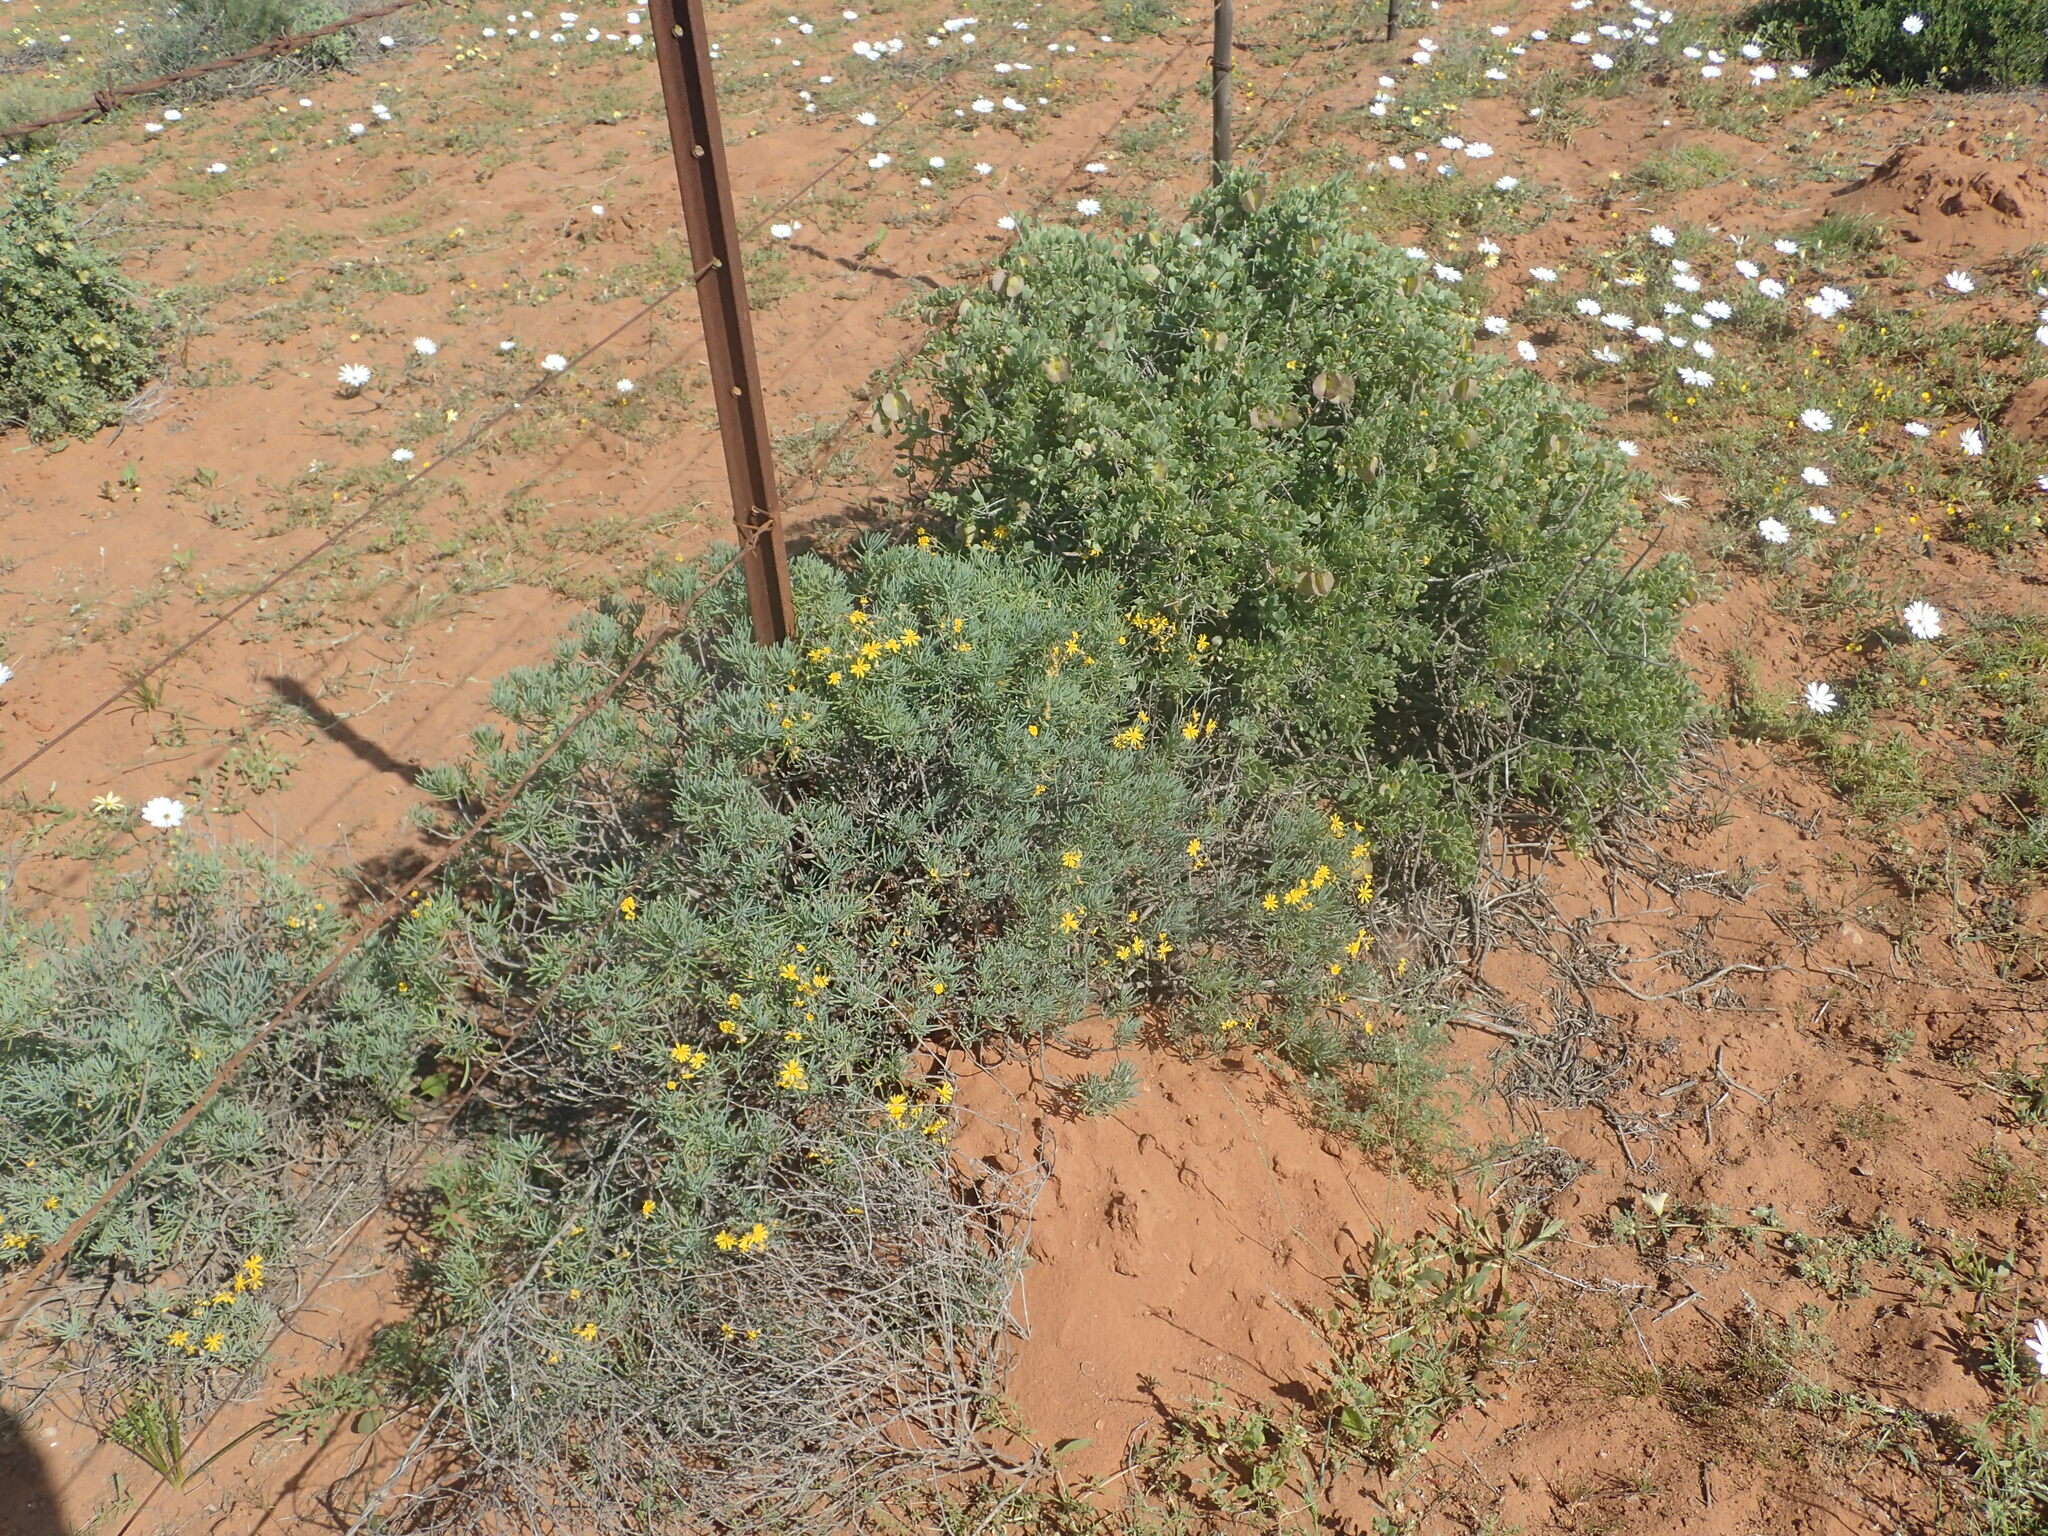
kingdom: Plantae
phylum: Tracheophyta
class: Magnoliopsida
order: Asterales
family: Asteraceae
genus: Crassothonna
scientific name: Crassothonna cylindrica
